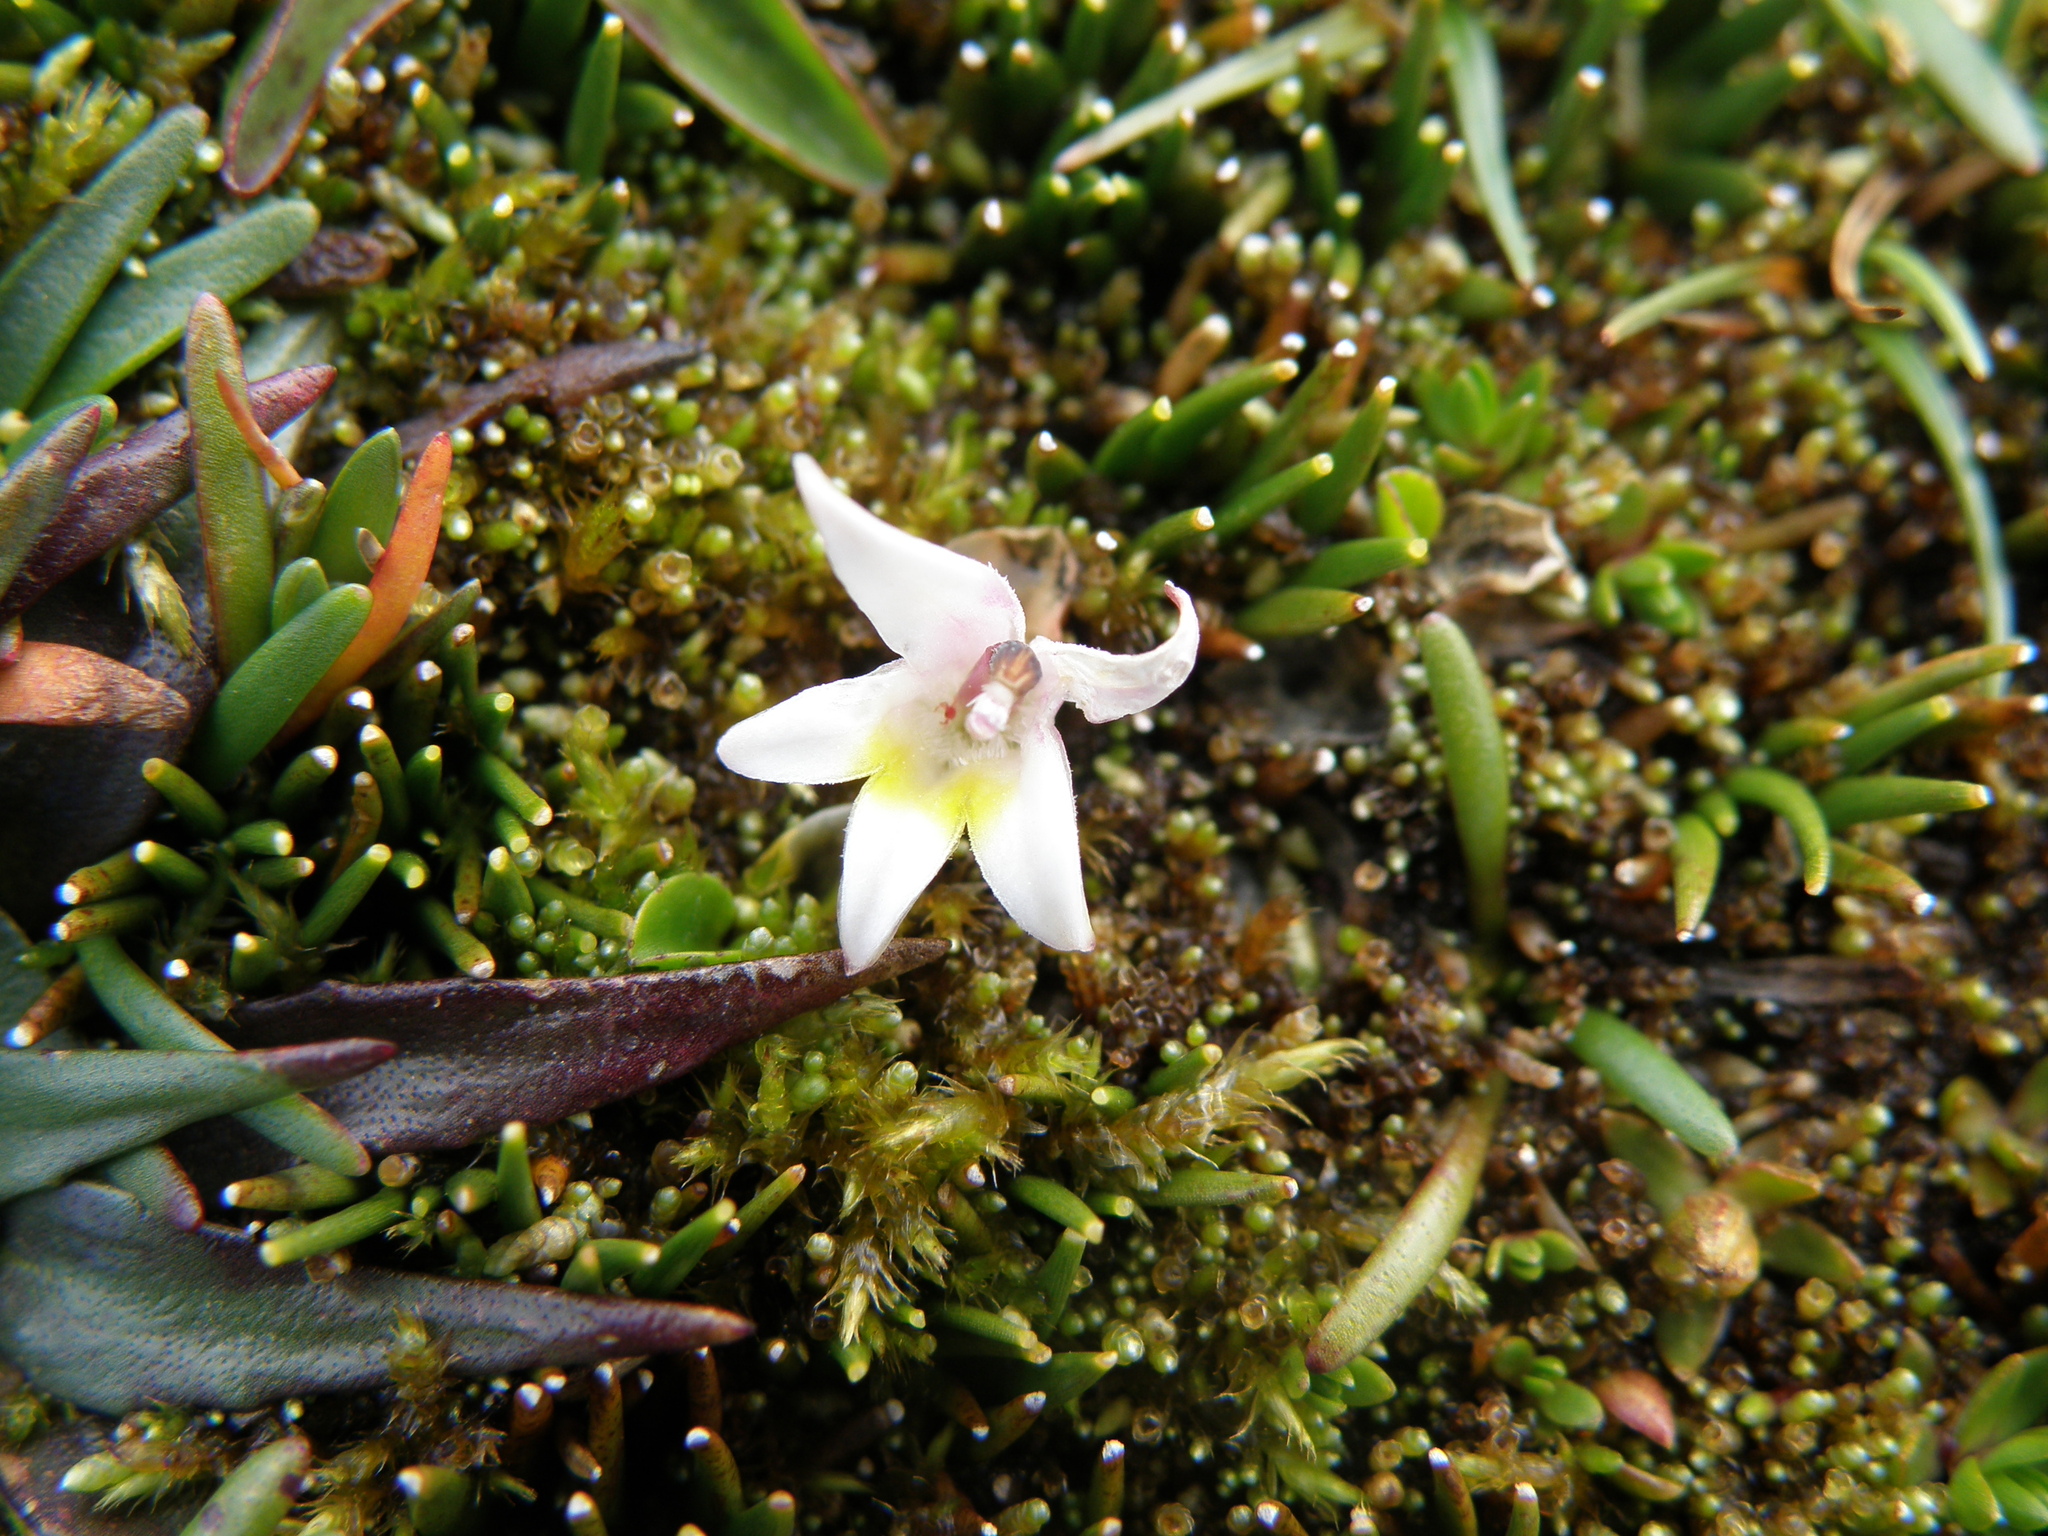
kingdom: Plantae
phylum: Tracheophyta
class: Magnoliopsida
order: Asterales
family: Campanulaceae
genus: Lobelia
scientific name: Lobelia oligophylla
